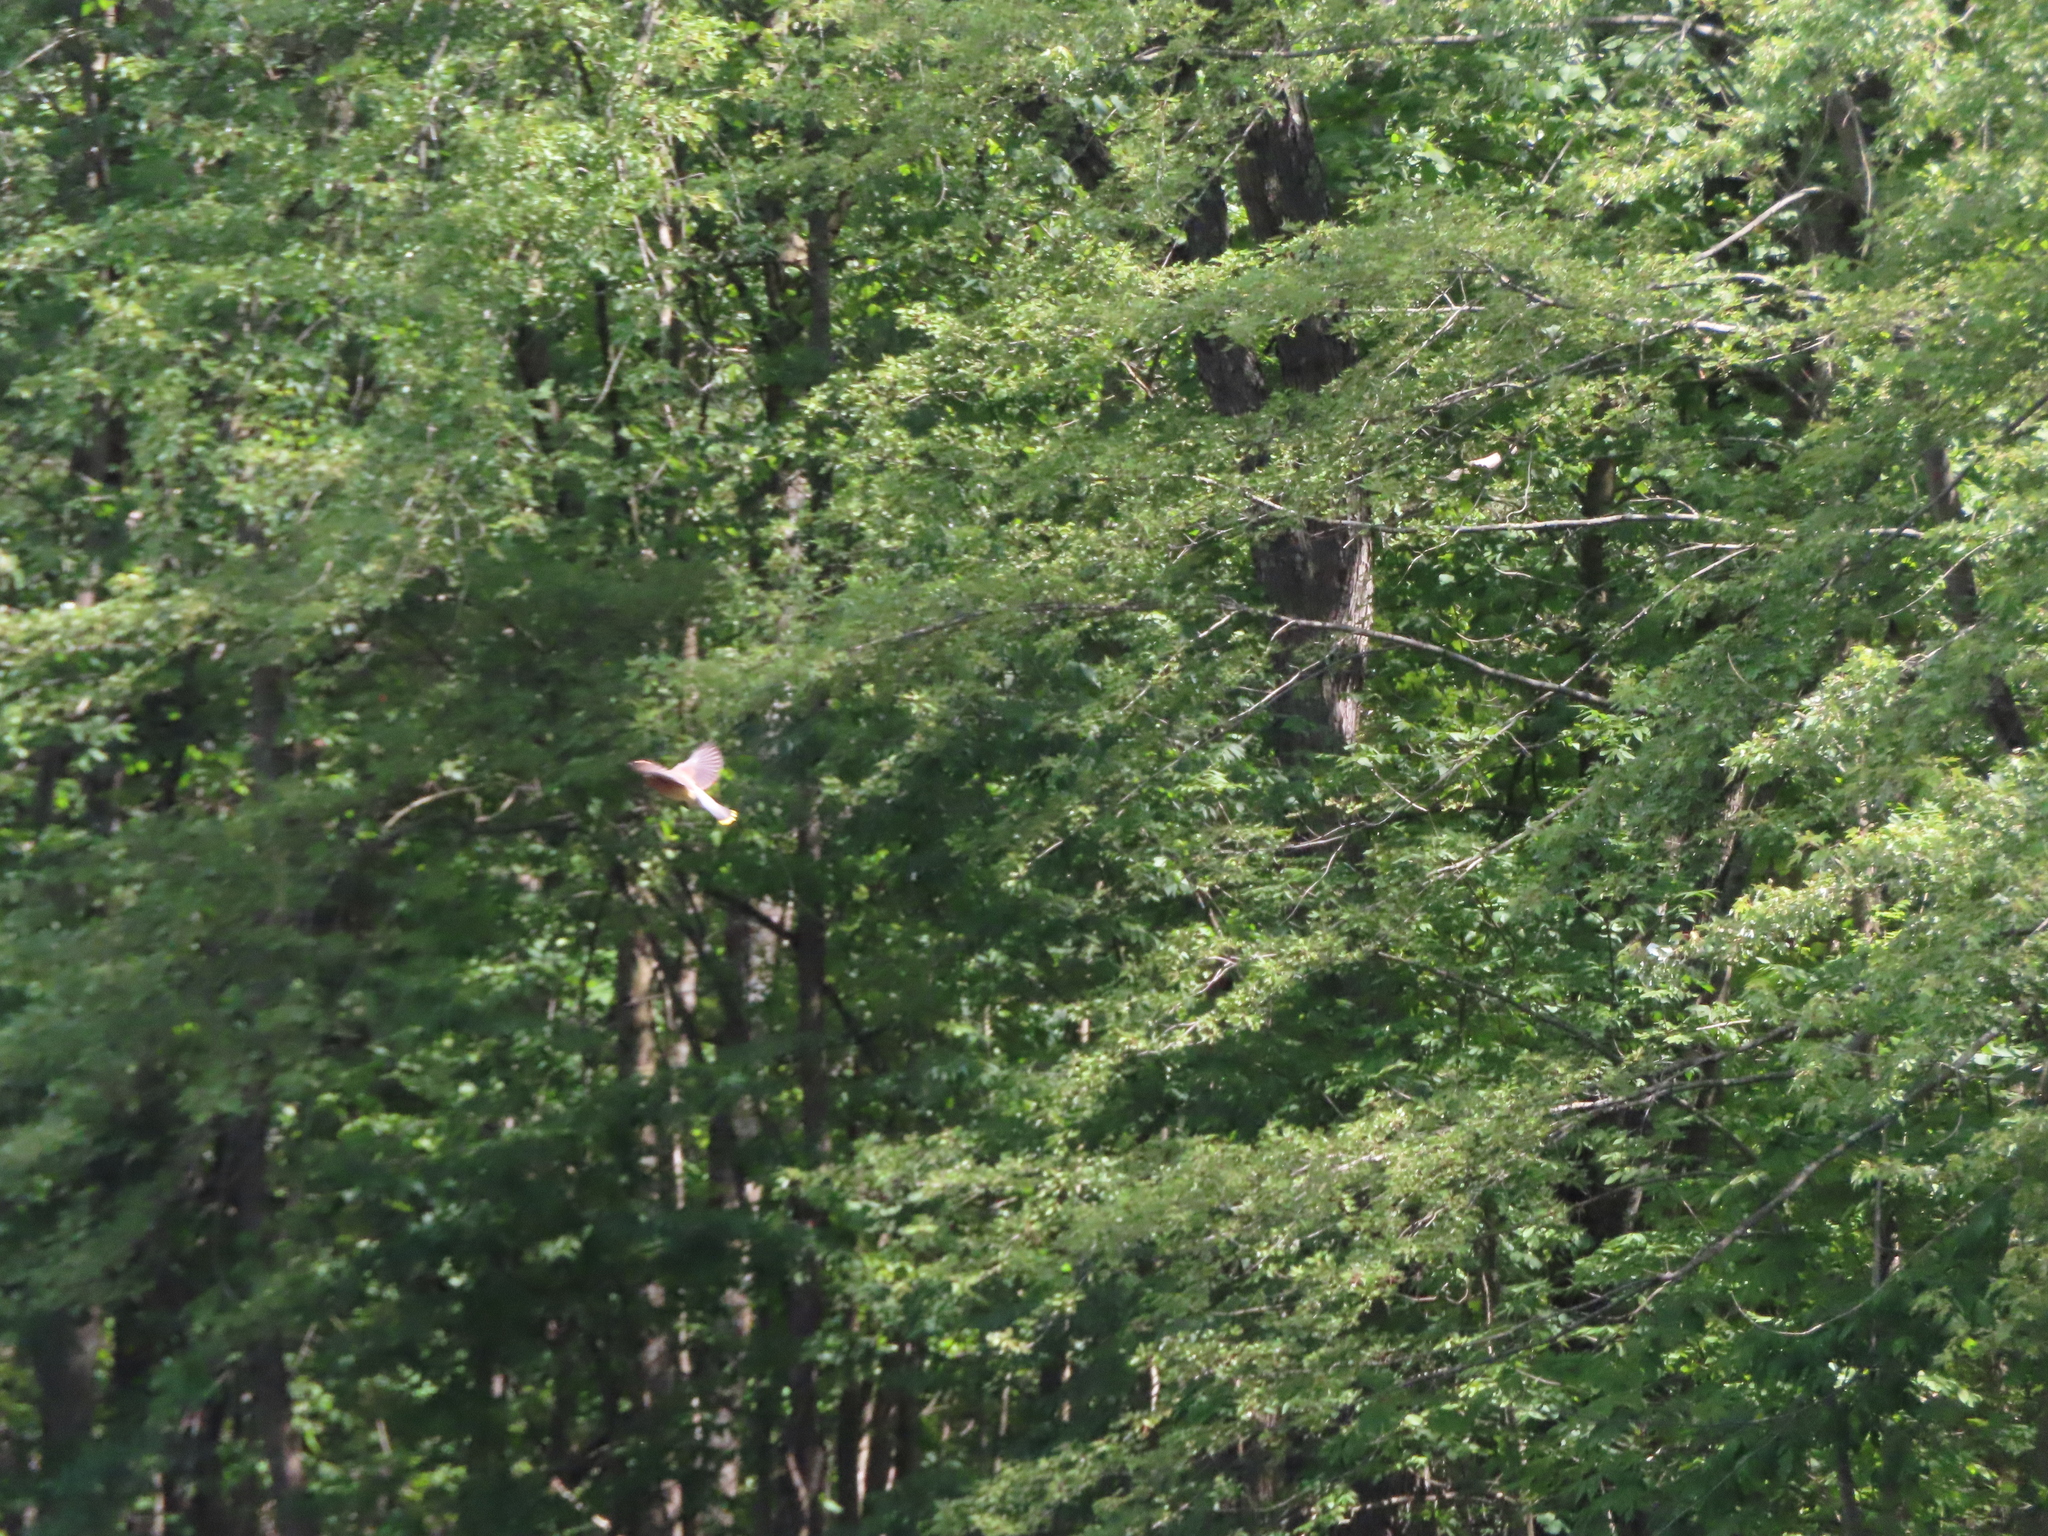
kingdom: Animalia
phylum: Chordata
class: Aves
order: Passeriformes
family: Bombycillidae
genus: Bombycilla
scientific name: Bombycilla cedrorum
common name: Cedar waxwing
